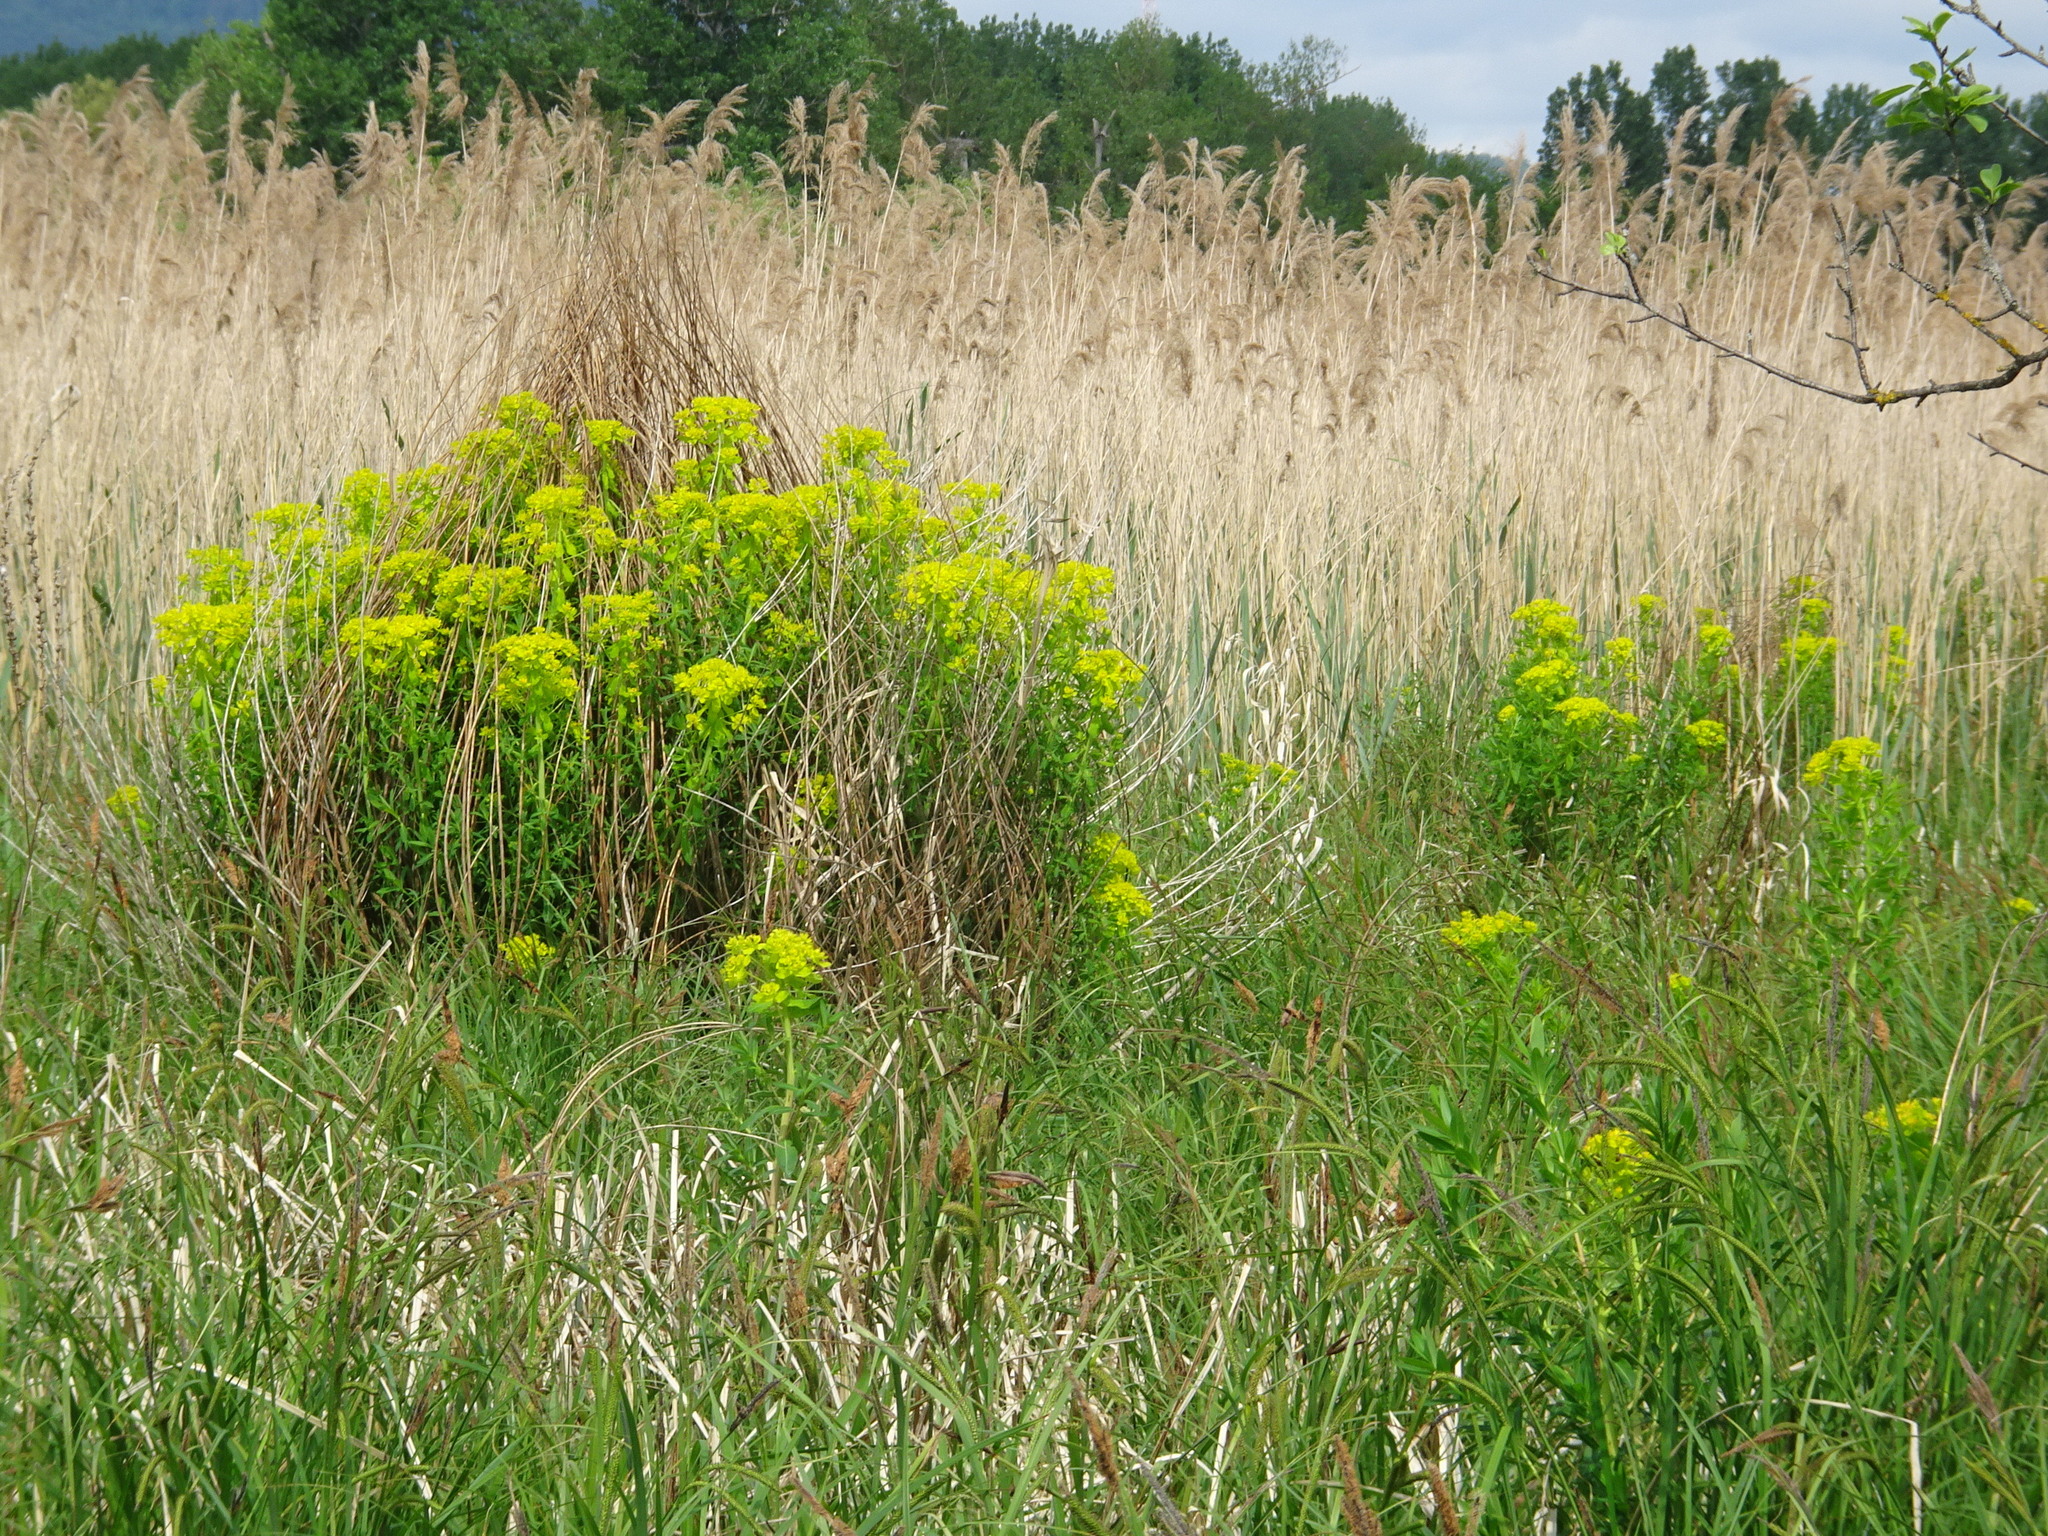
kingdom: Plantae
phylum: Tracheophyta
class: Magnoliopsida
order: Malpighiales
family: Euphorbiaceae
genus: Euphorbia
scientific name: Euphorbia palustris
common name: Marsh spurge
